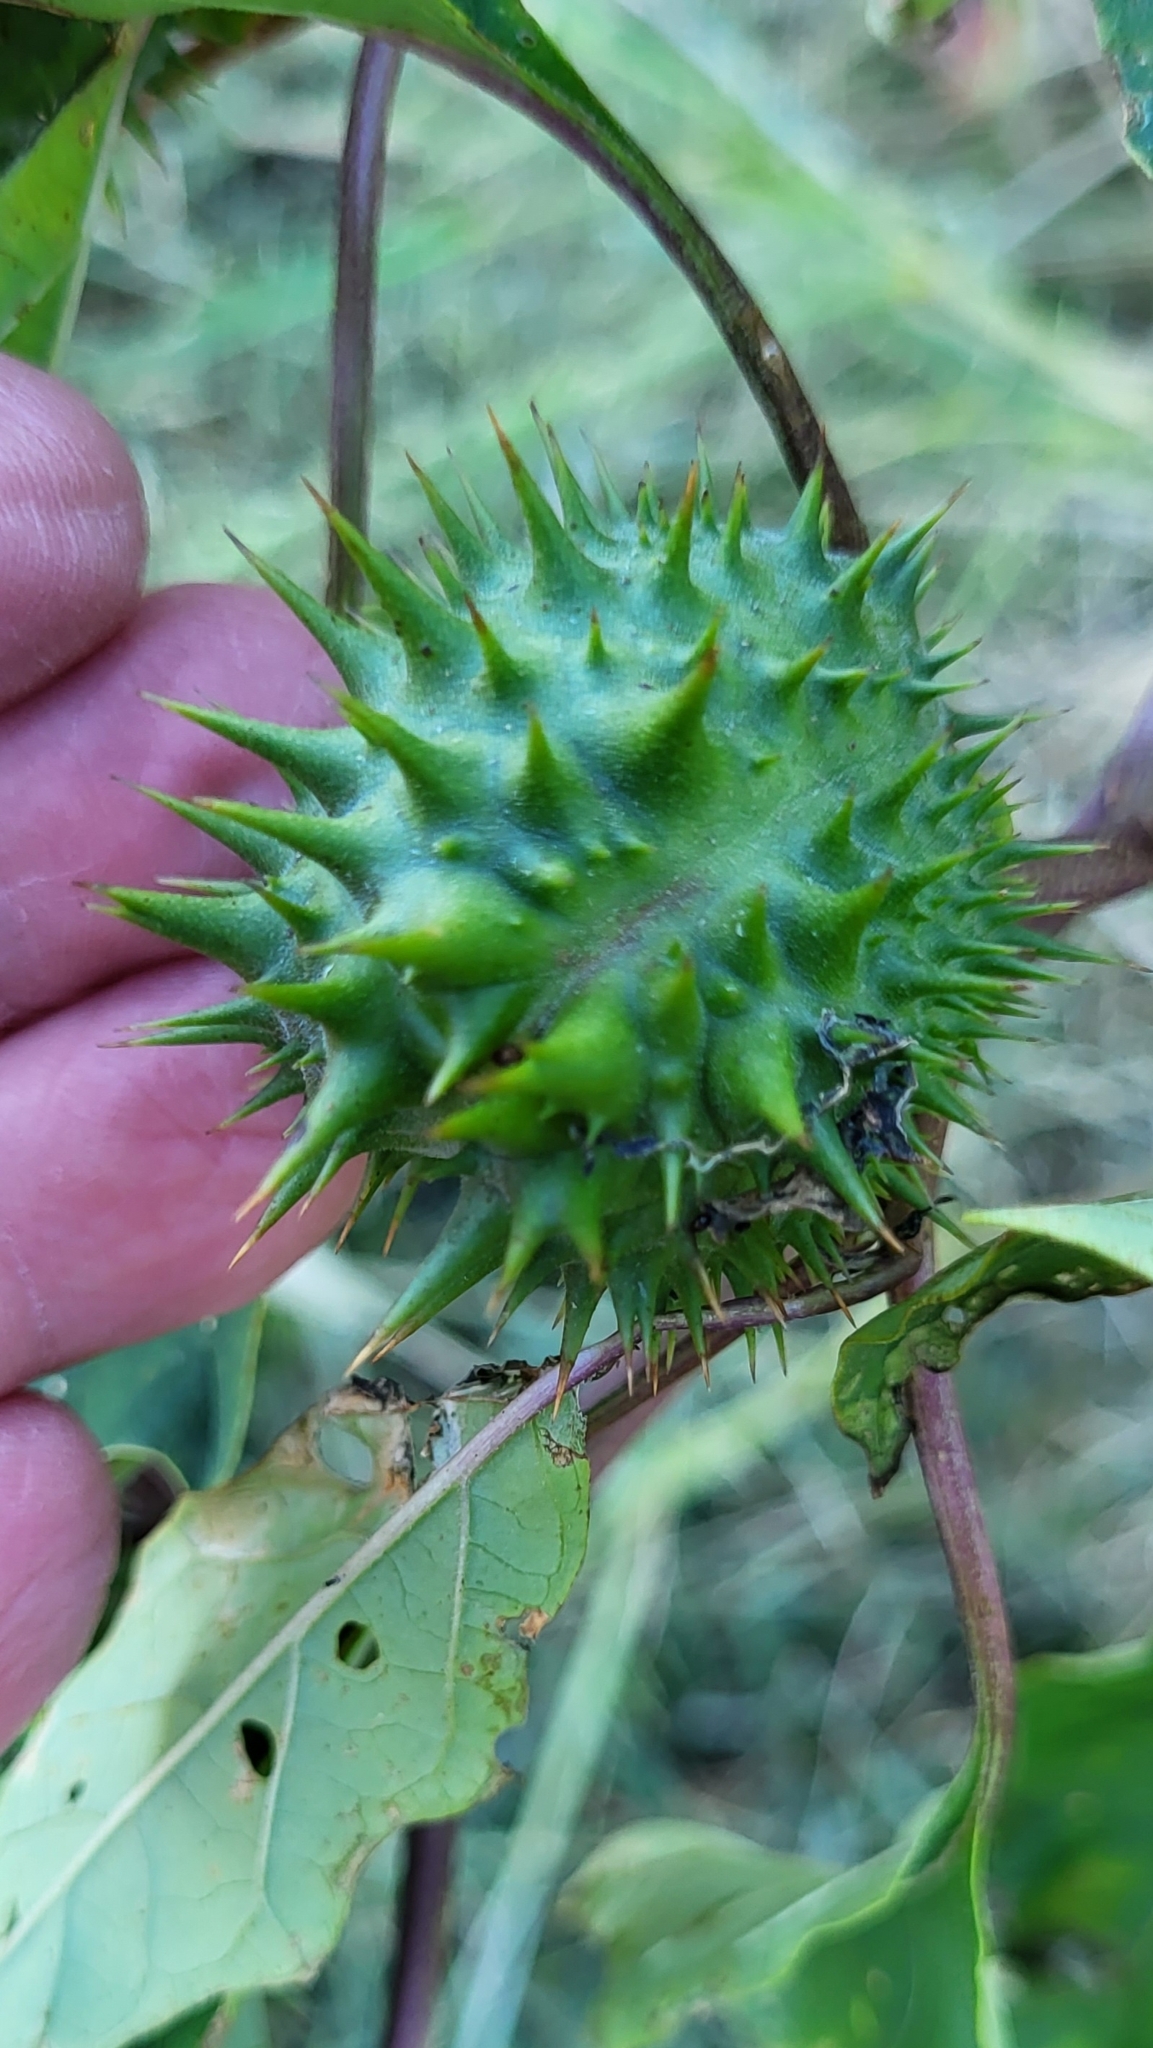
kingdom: Plantae
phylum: Tracheophyta
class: Magnoliopsida
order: Solanales
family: Solanaceae
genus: Datura
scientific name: Datura stramonium
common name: Thorn-apple
